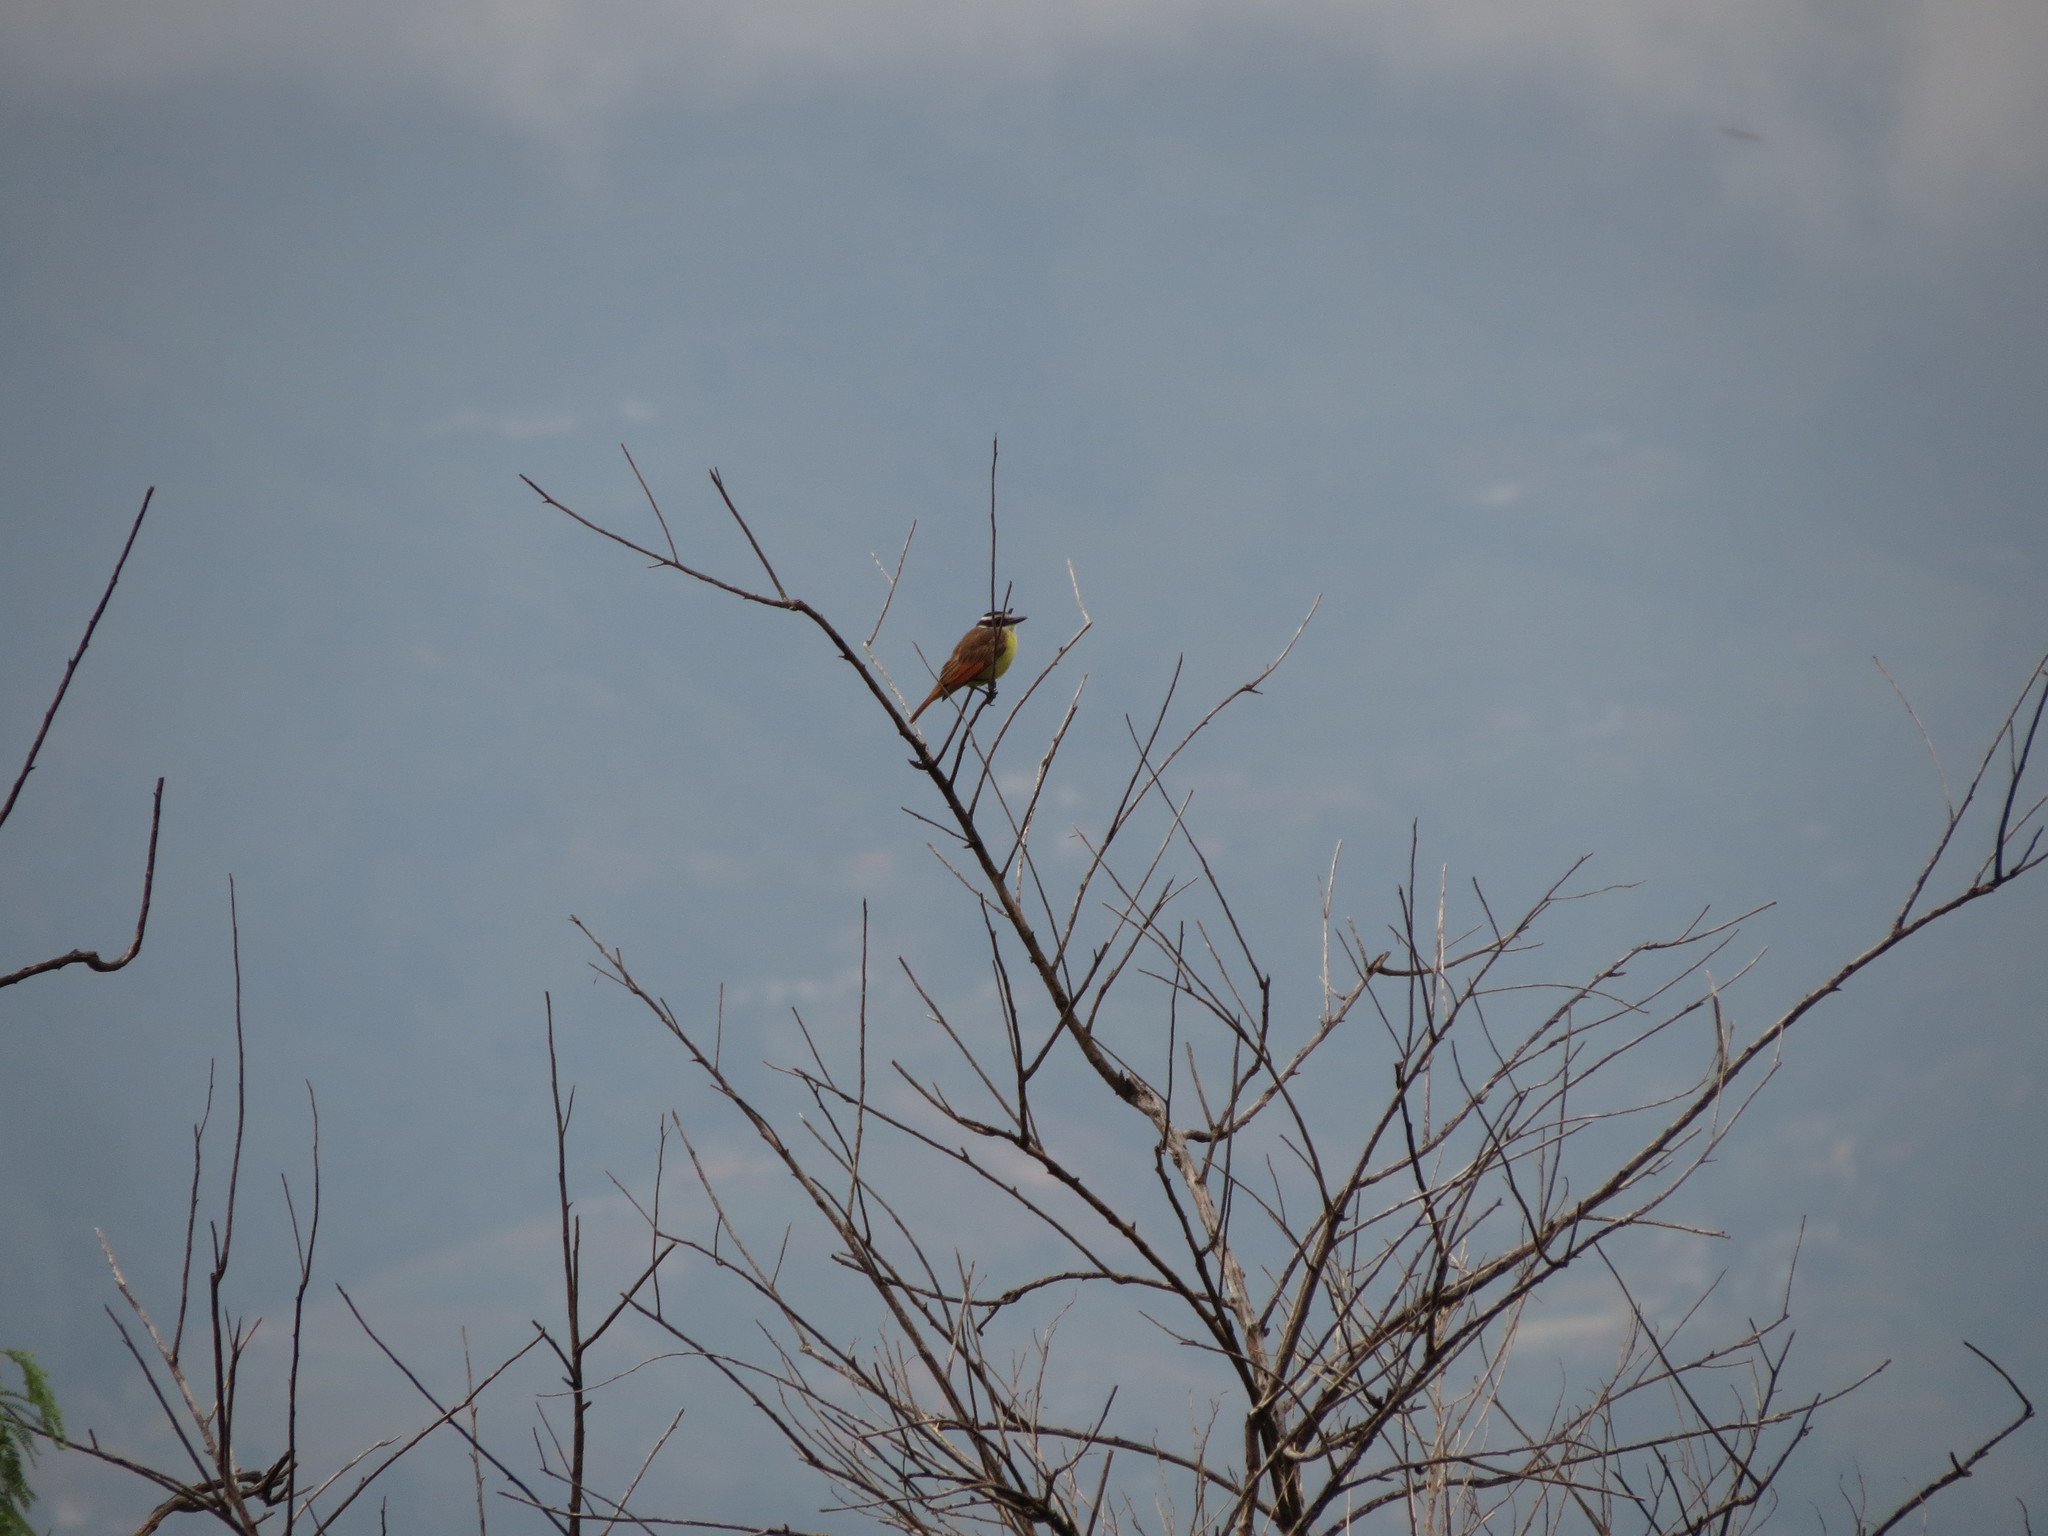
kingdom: Animalia
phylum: Chordata
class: Aves
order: Passeriformes
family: Tyrannidae
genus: Pitangus
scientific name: Pitangus sulphuratus
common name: Great kiskadee
